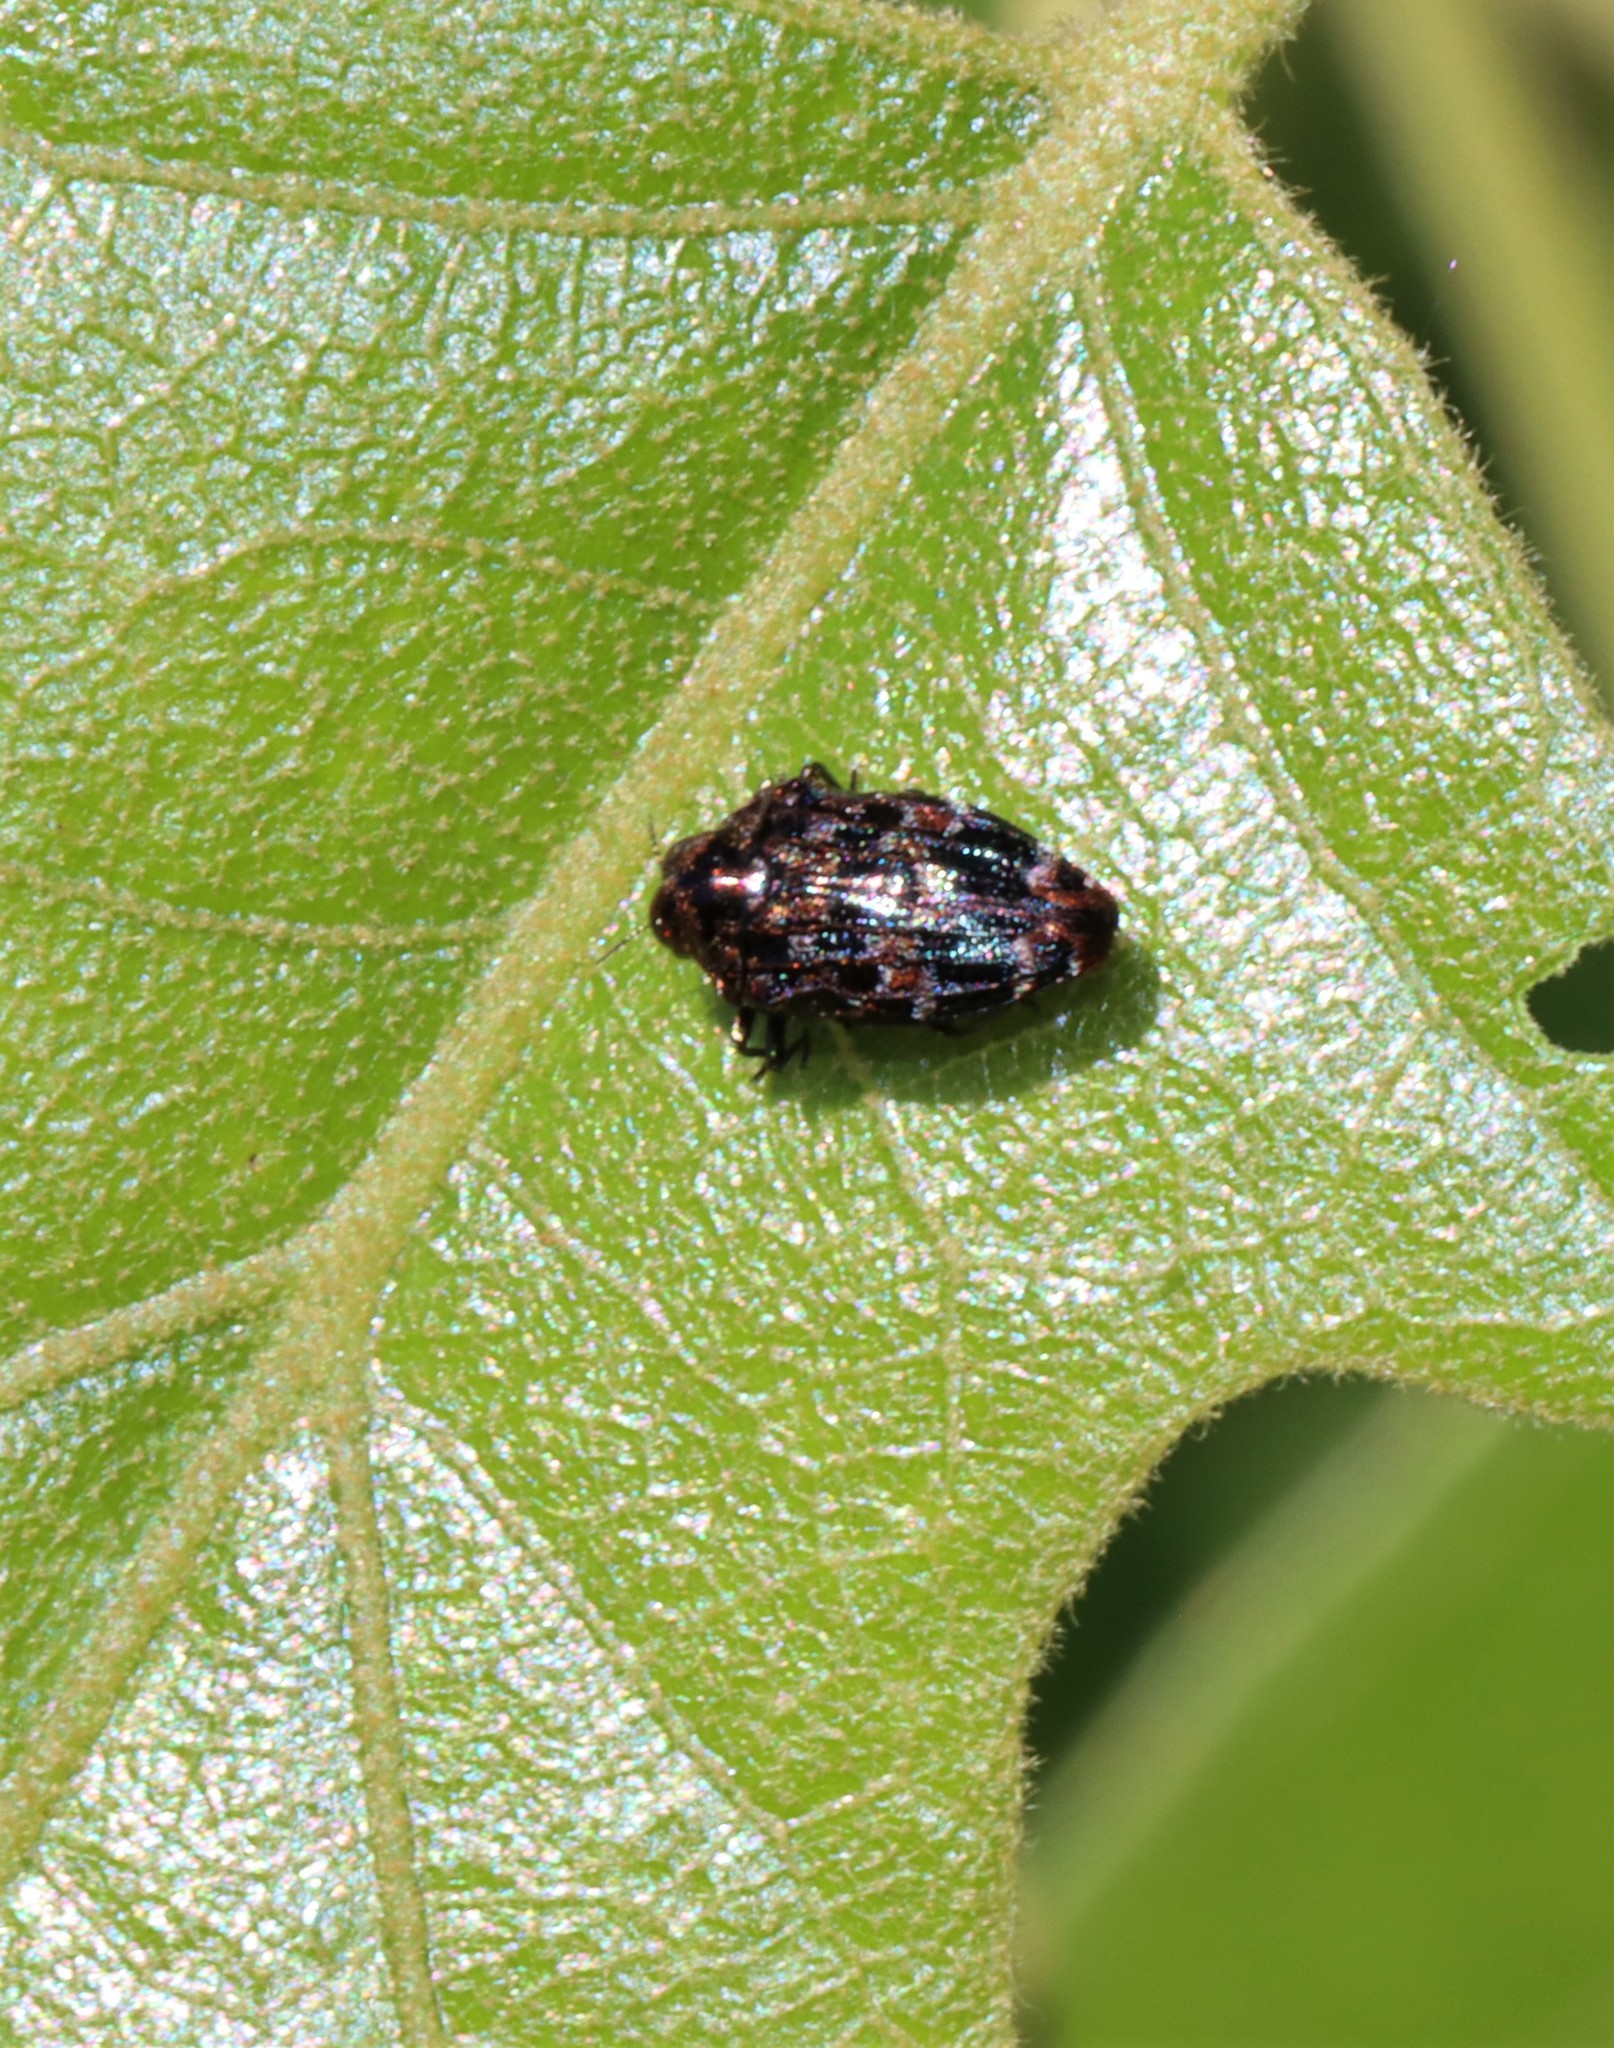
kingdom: Animalia
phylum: Arthropoda
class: Insecta
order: Coleoptera
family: Buprestidae
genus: Brachys
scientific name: Brachys ovatus
